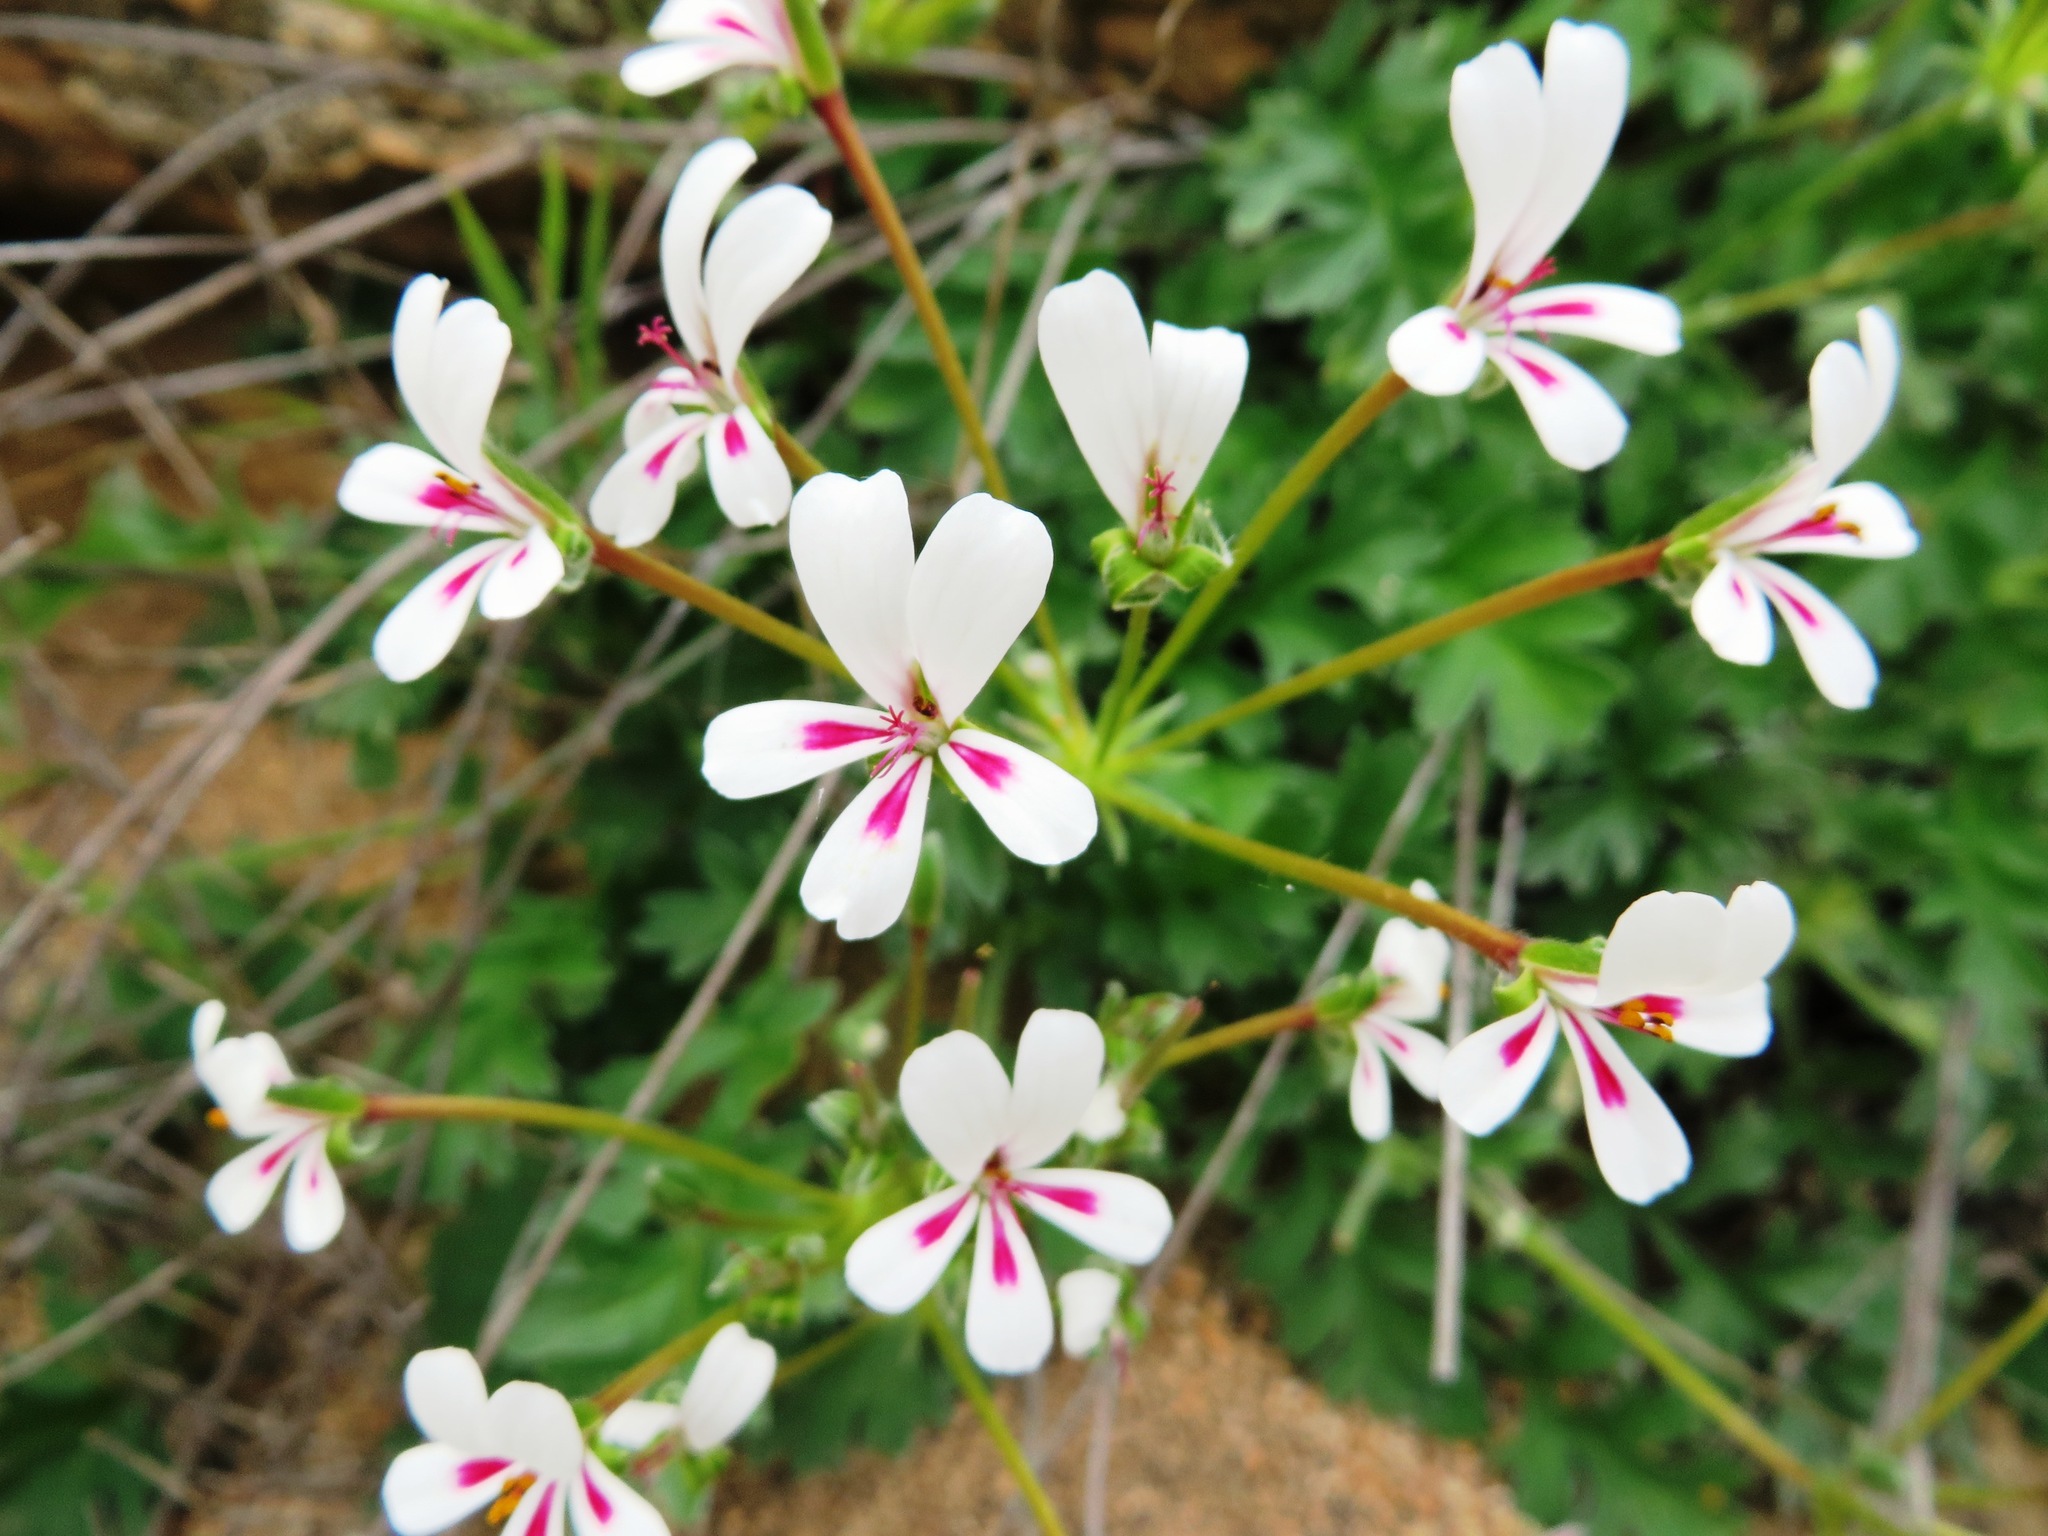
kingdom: Plantae
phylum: Tracheophyta
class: Magnoliopsida
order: Geraniales
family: Geraniaceae
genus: Pelargonium
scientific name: Pelargonium pulchellum
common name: Nonesuch pelargonium
